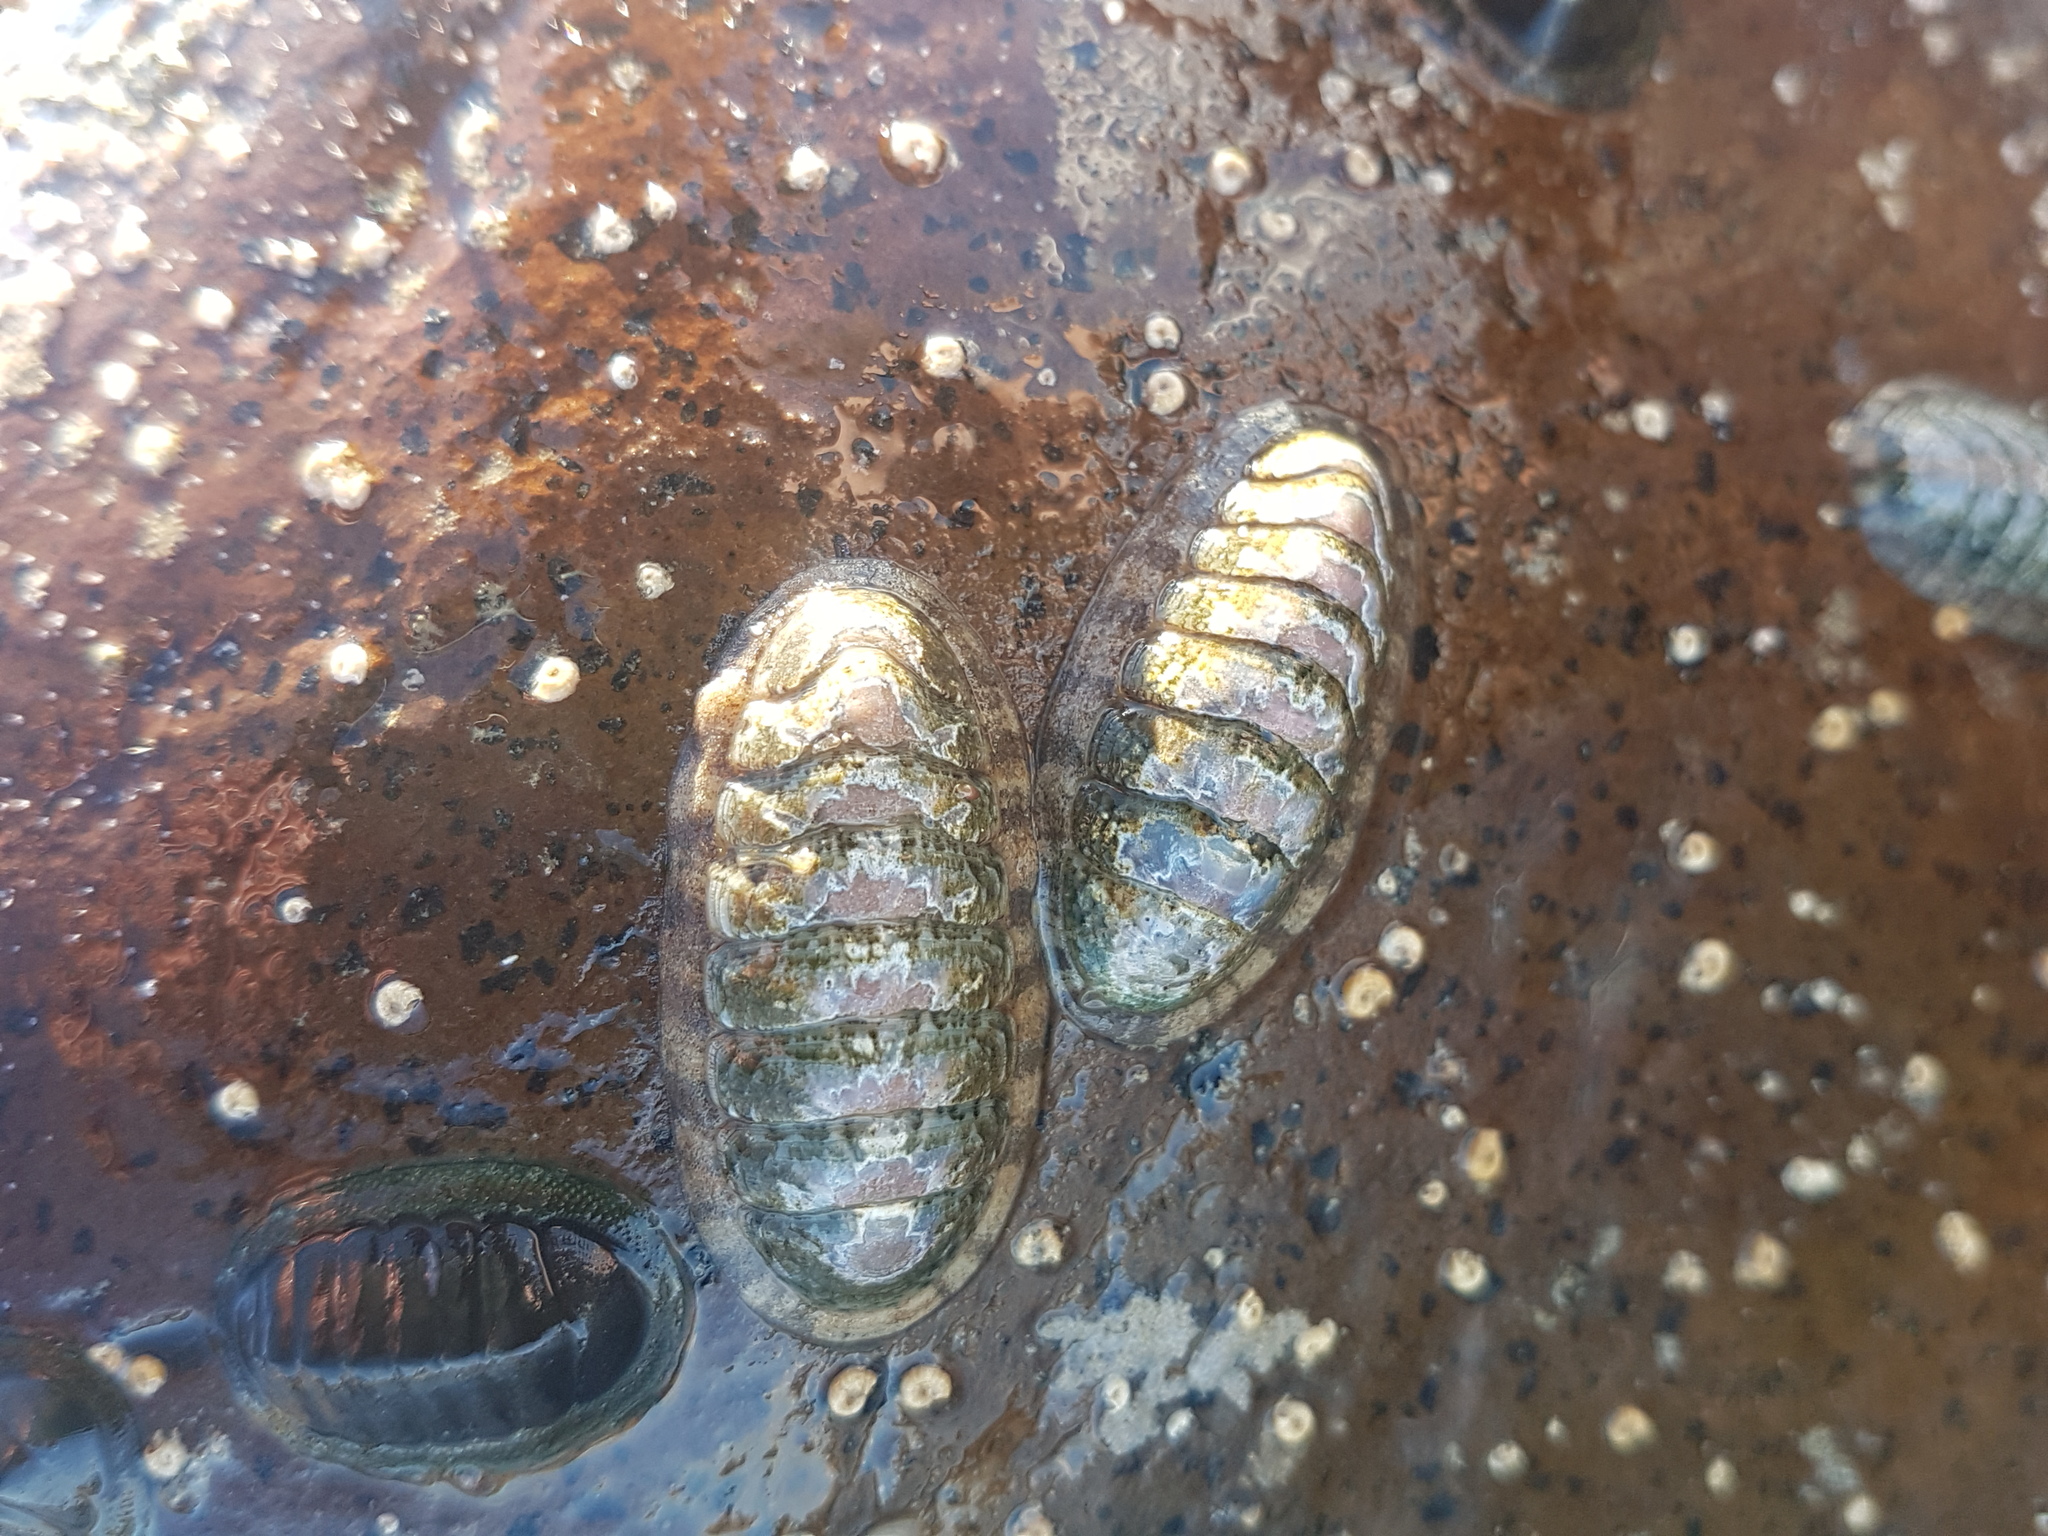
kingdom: Animalia
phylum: Mollusca
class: Polyplacophora
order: Chitonida
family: Ischnochitonidae
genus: Ischnochiton
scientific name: Ischnochiton maorianus
